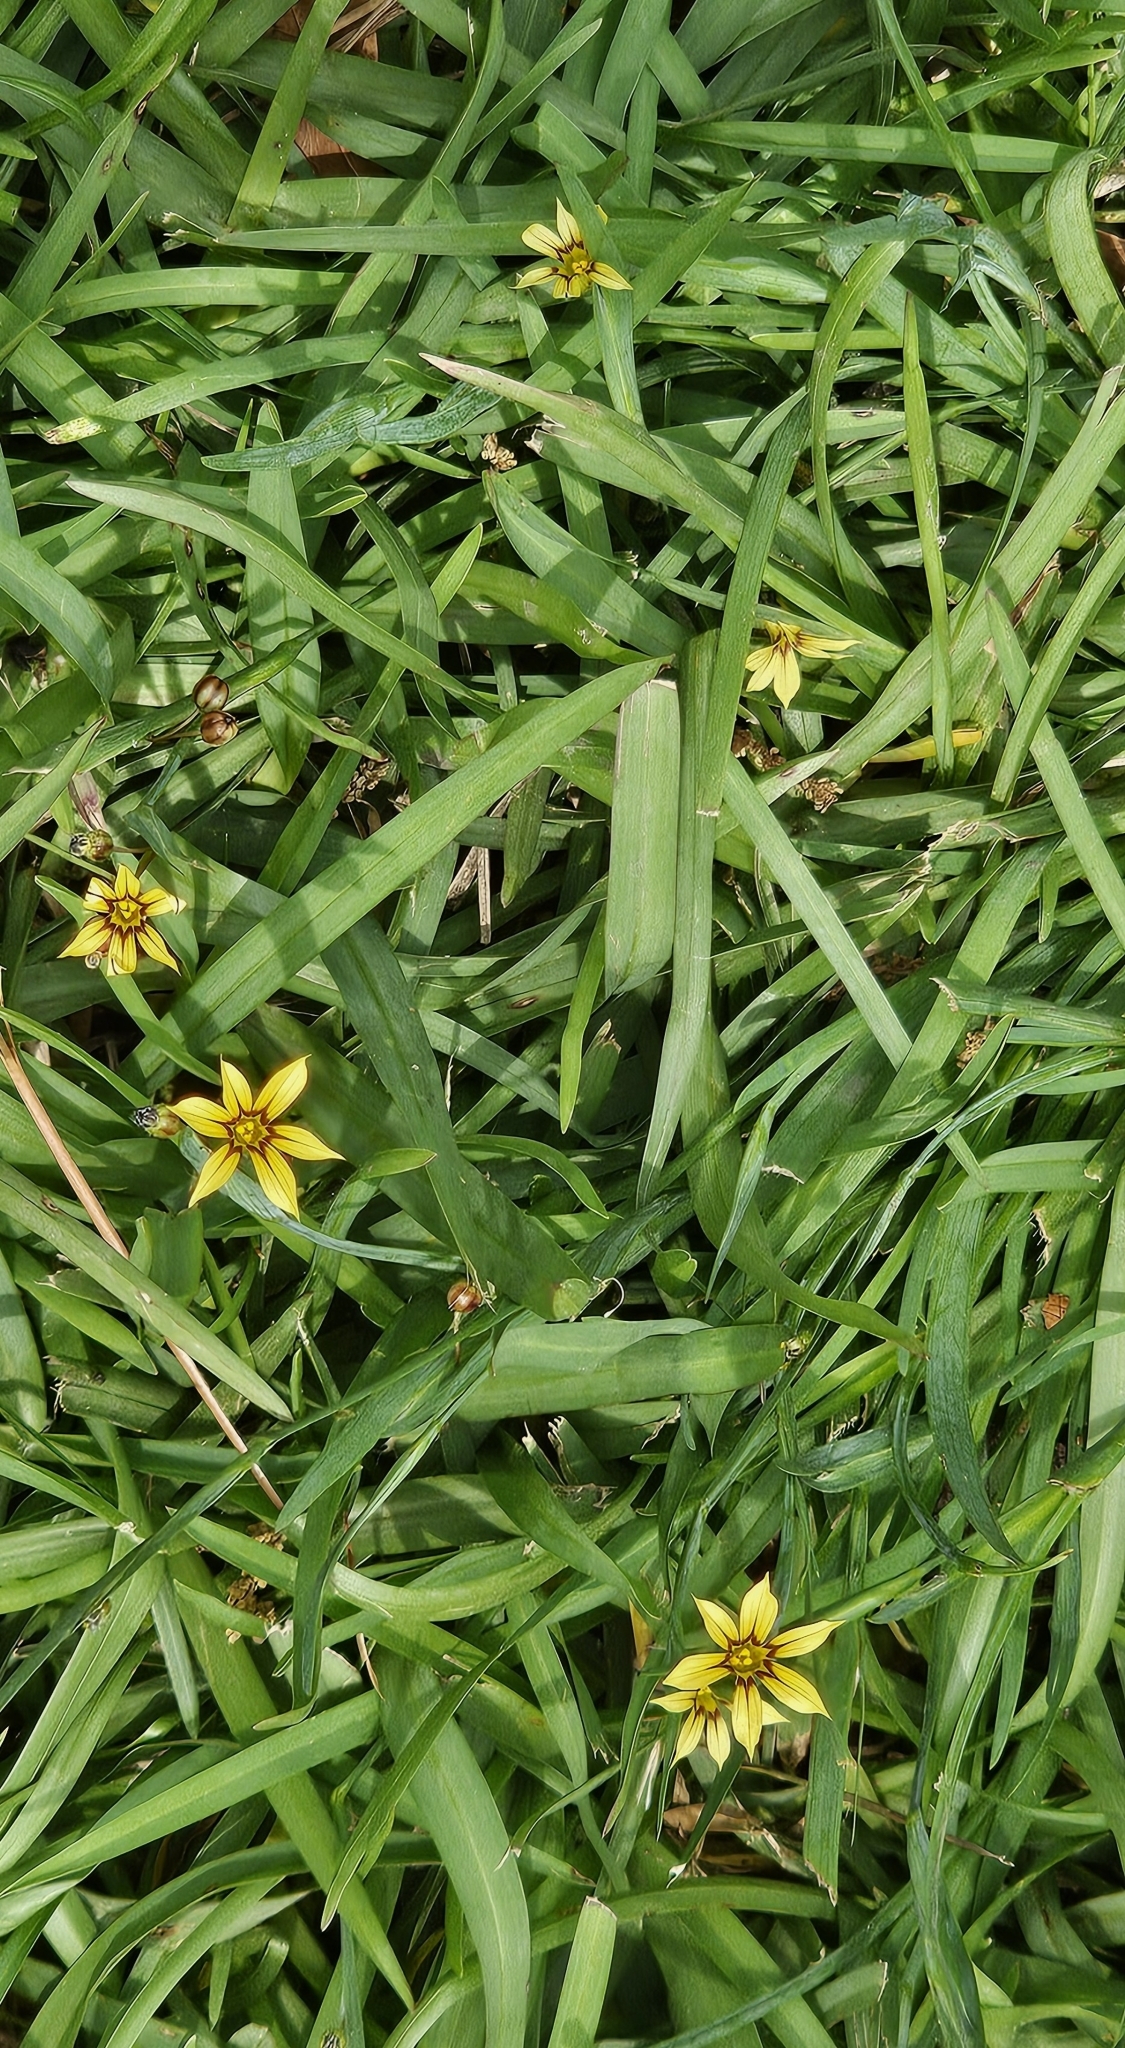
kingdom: Plantae
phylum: Tracheophyta
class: Liliopsida
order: Asparagales
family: Iridaceae
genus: Sisyrinchium
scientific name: Sisyrinchium micranthum
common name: Bermuda pigroot
